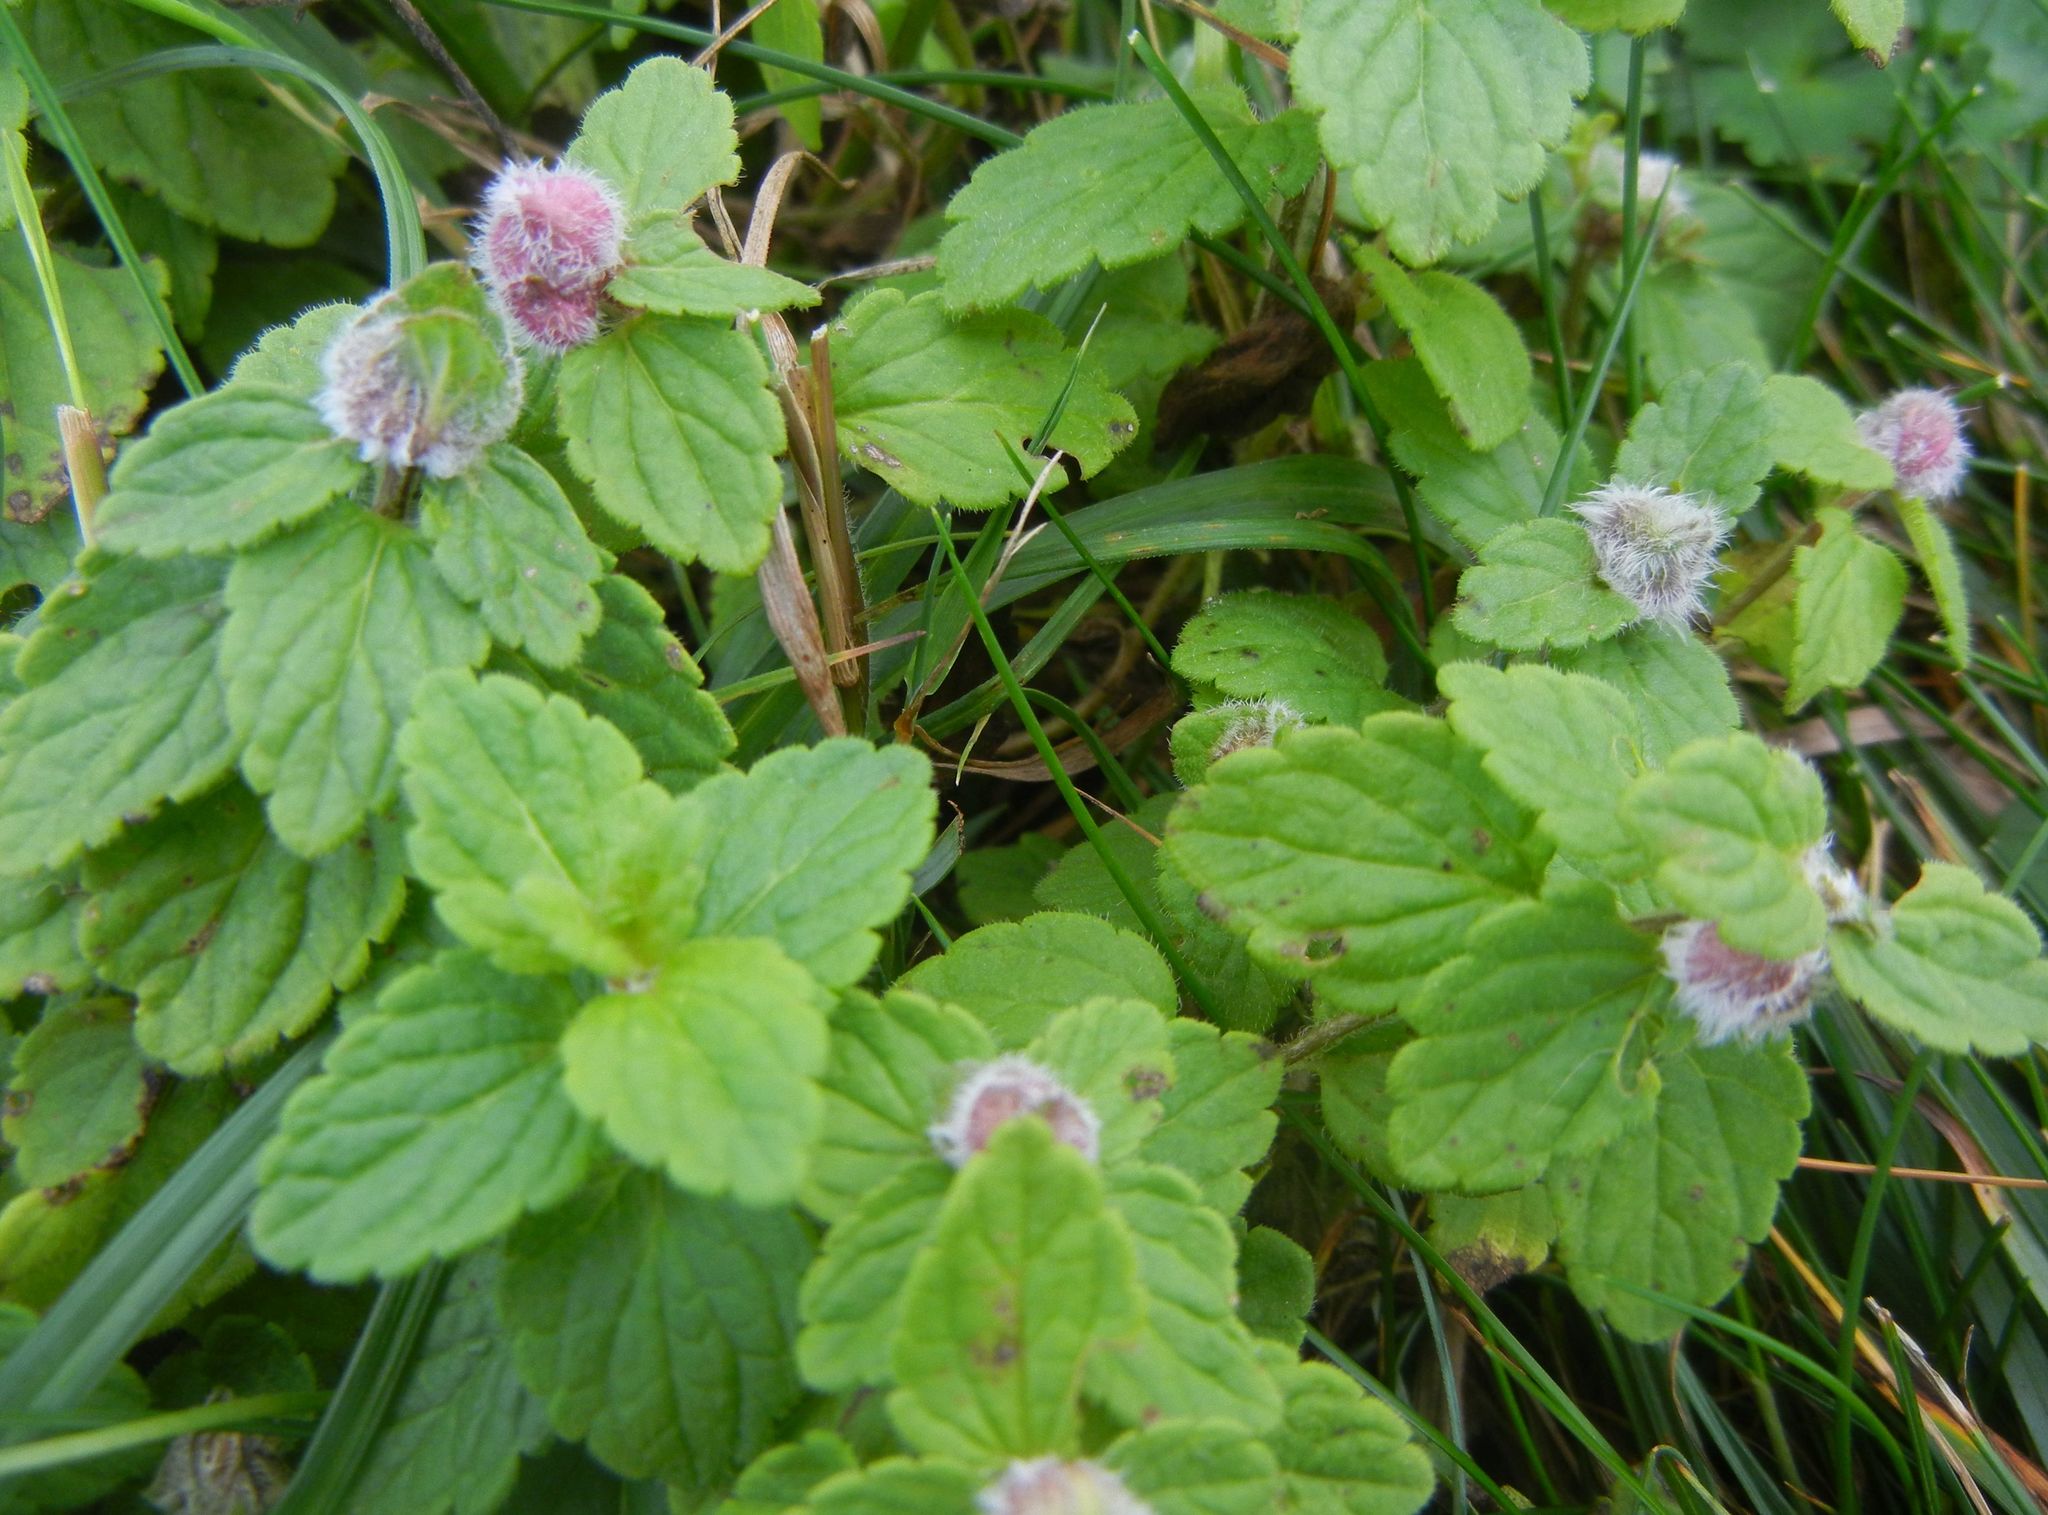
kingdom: Animalia
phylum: Arthropoda
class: Insecta
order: Diptera
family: Cecidomyiidae
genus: Jaapiella
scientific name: Jaapiella veronicae
